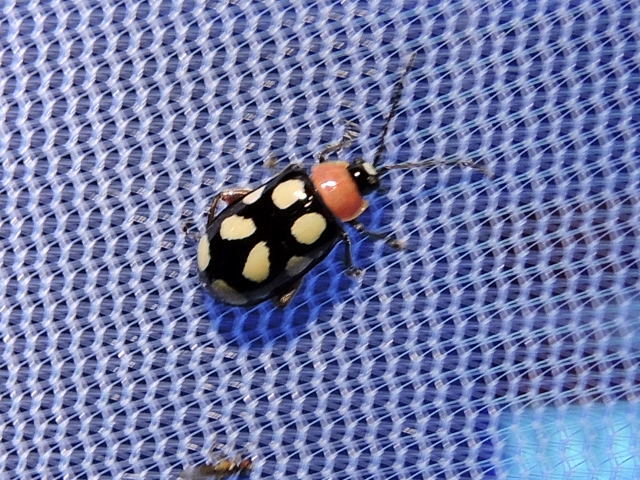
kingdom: Animalia
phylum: Arthropoda
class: Insecta
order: Coleoptera
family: Chrysomelidae
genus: Omophoita
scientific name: Omophoita cyanipennis
